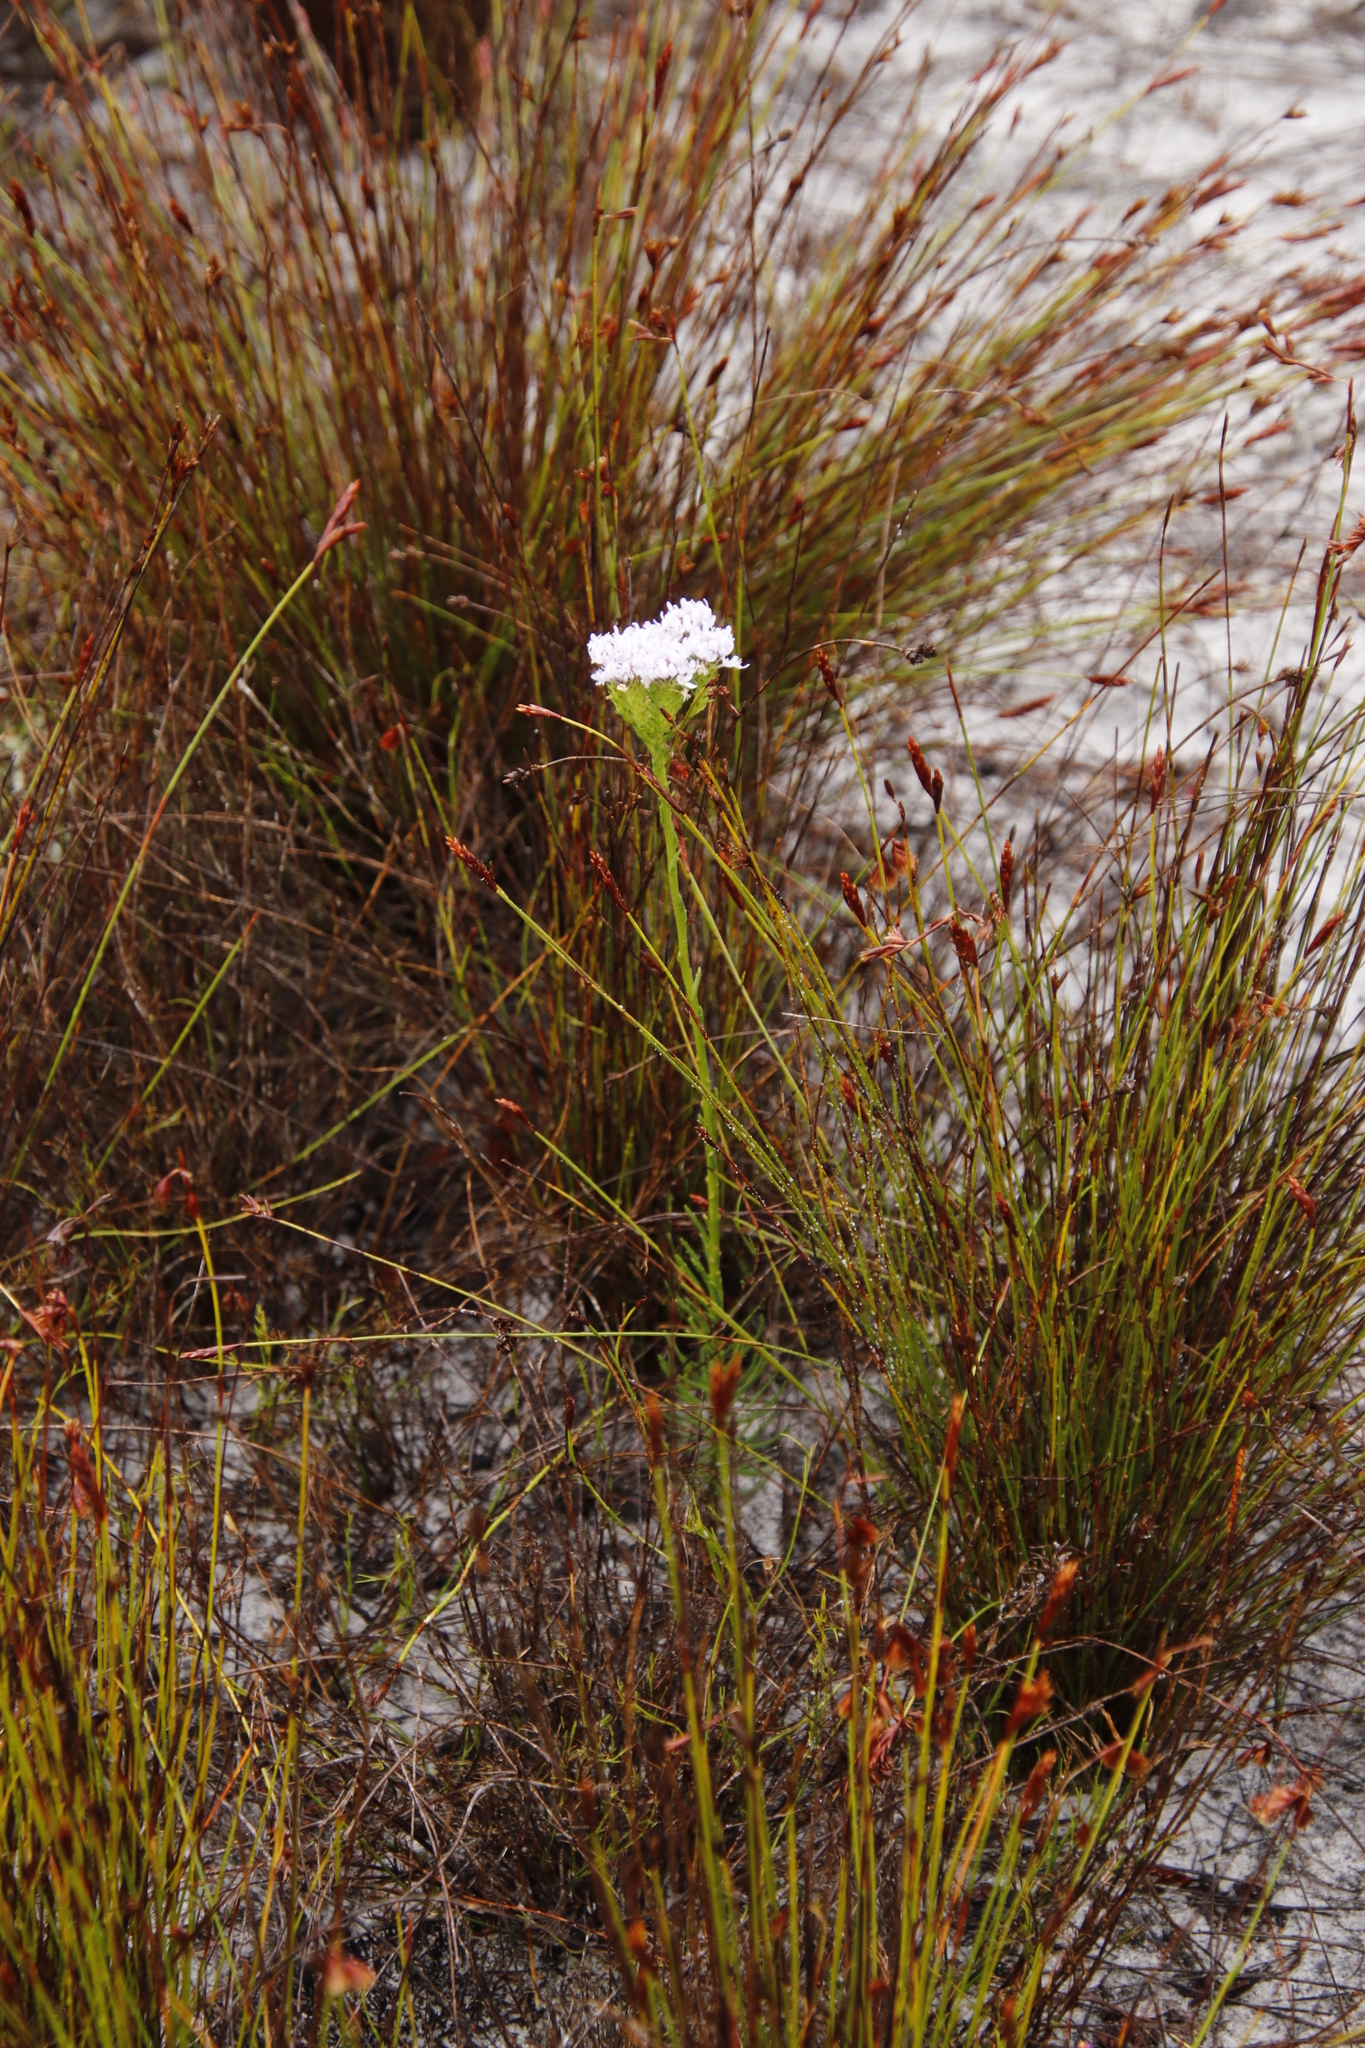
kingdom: Plantae
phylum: Tracheophyta
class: Magnoliopsida
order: Lamiales
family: Scrophulariaceae
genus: Pseudoselago
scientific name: Pseudoselago spuria
